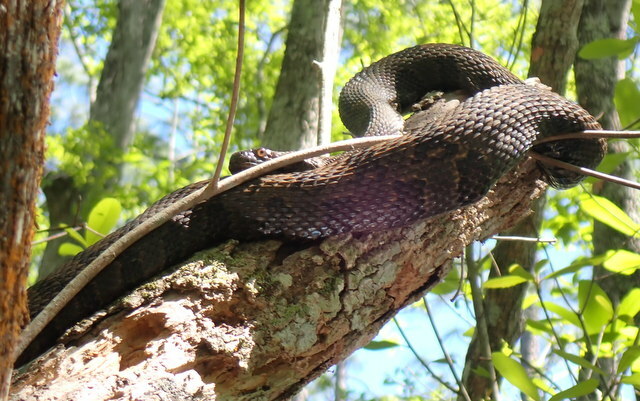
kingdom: Animalia
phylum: Chordata
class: Squamata
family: Colubridae
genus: Nerodia
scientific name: Nerodia taxispilota
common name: Brown water snake
